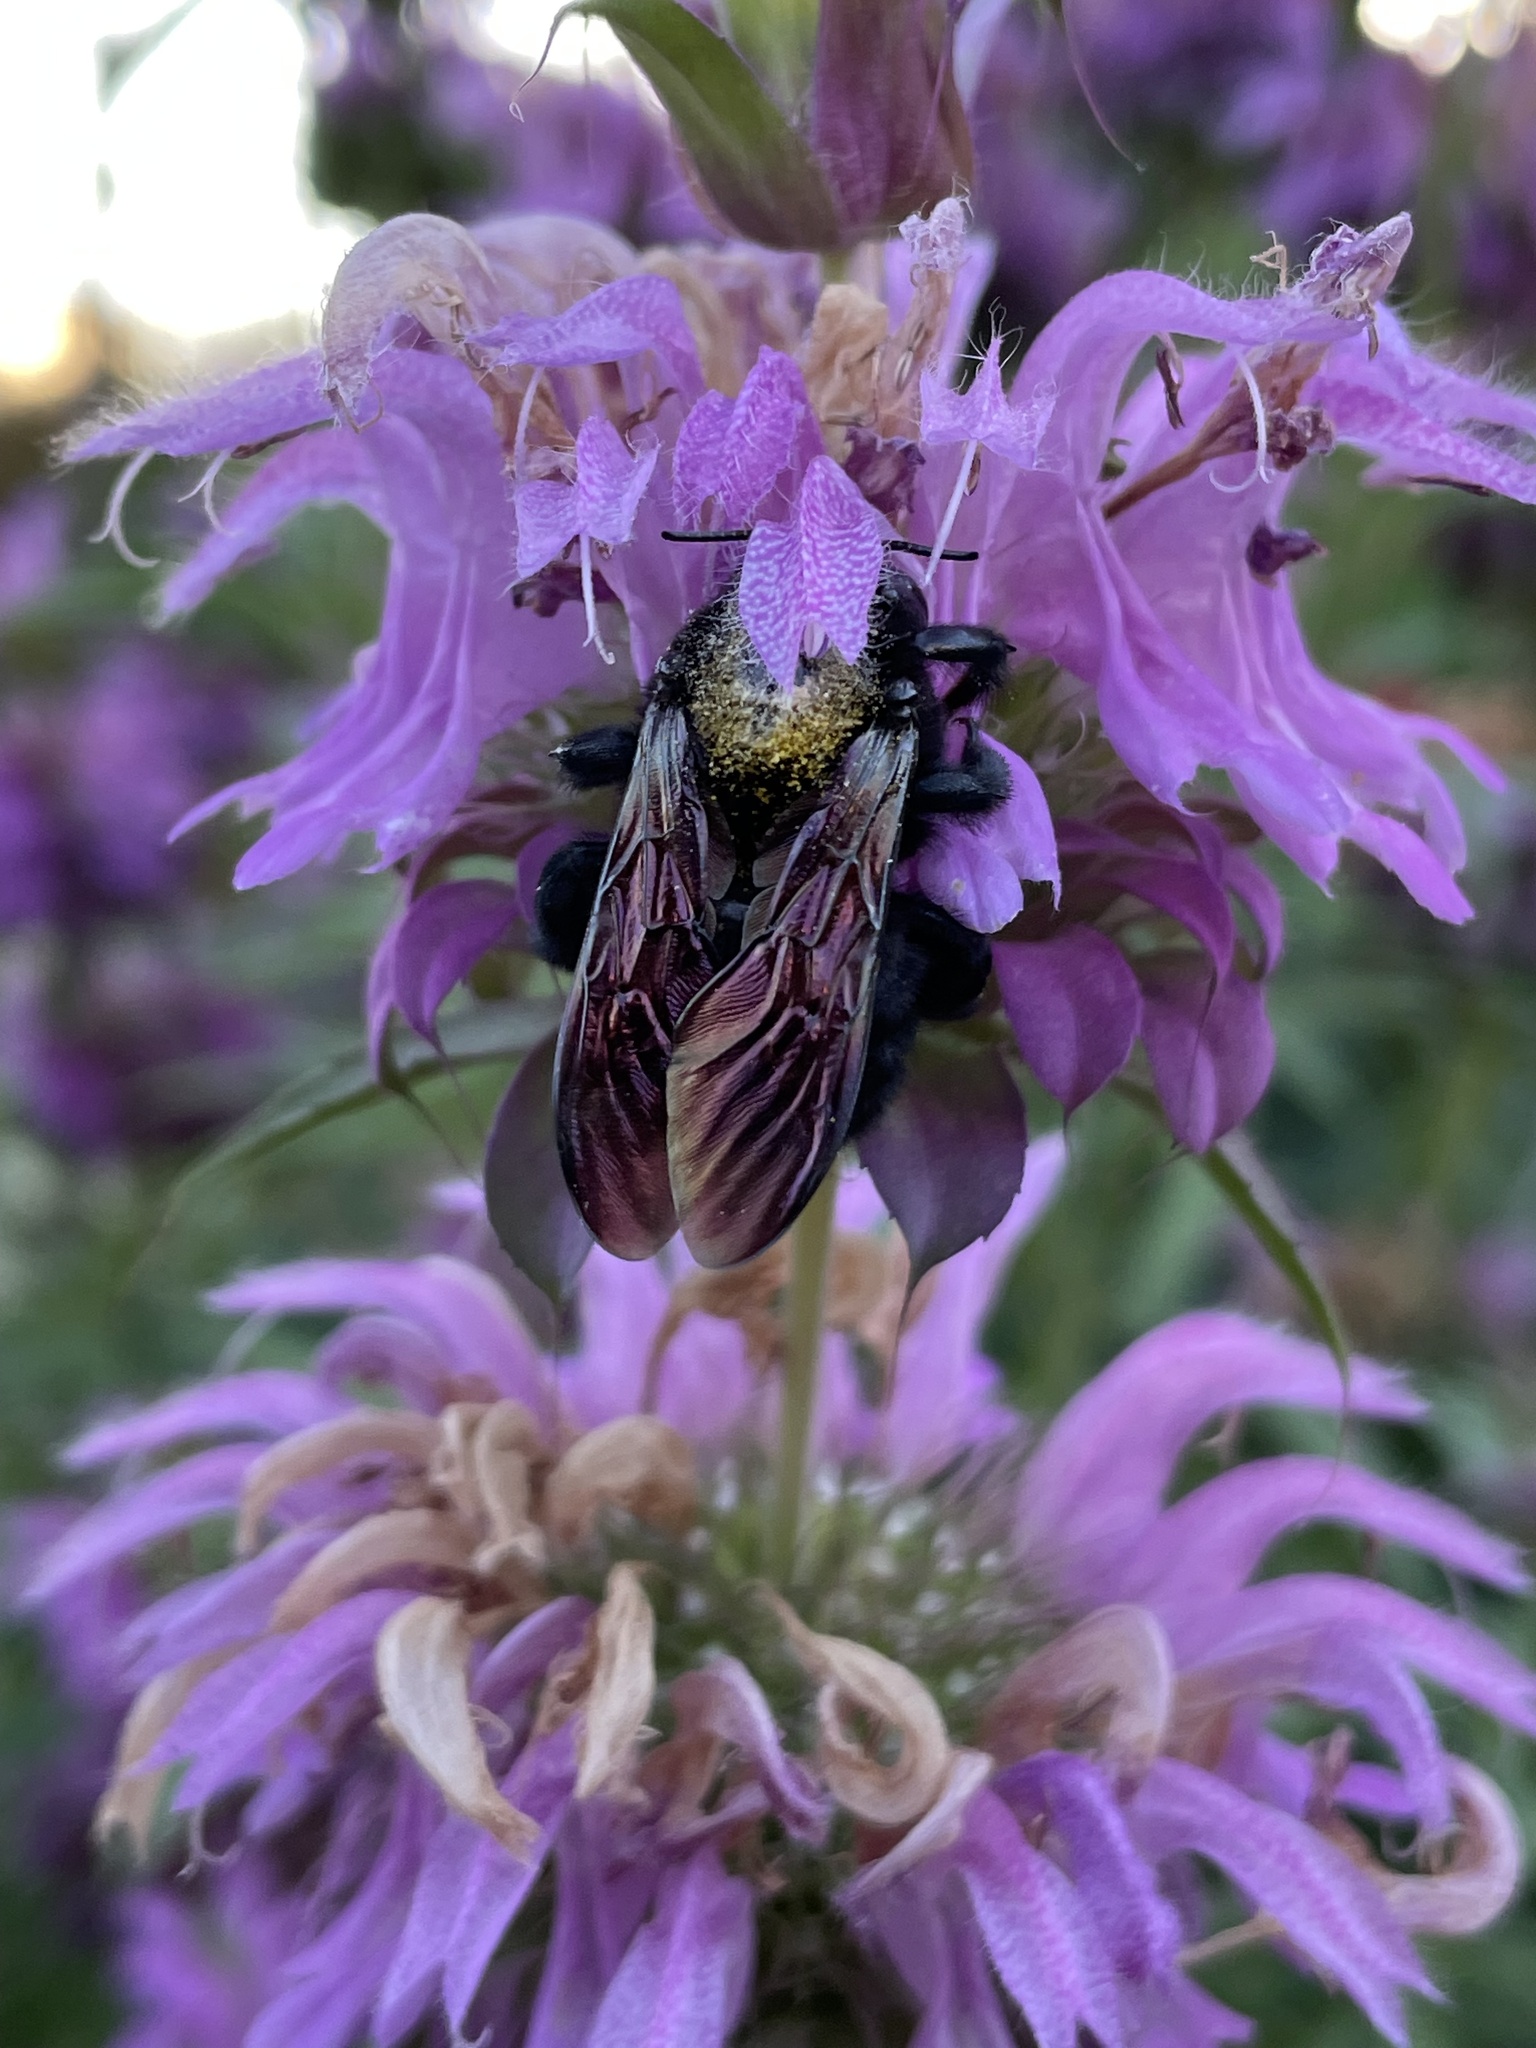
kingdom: Animalia
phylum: Arthropoda
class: Insecta
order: Hymenoptera
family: Apidae
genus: Xylocopa
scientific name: Xylocopa sonorina
